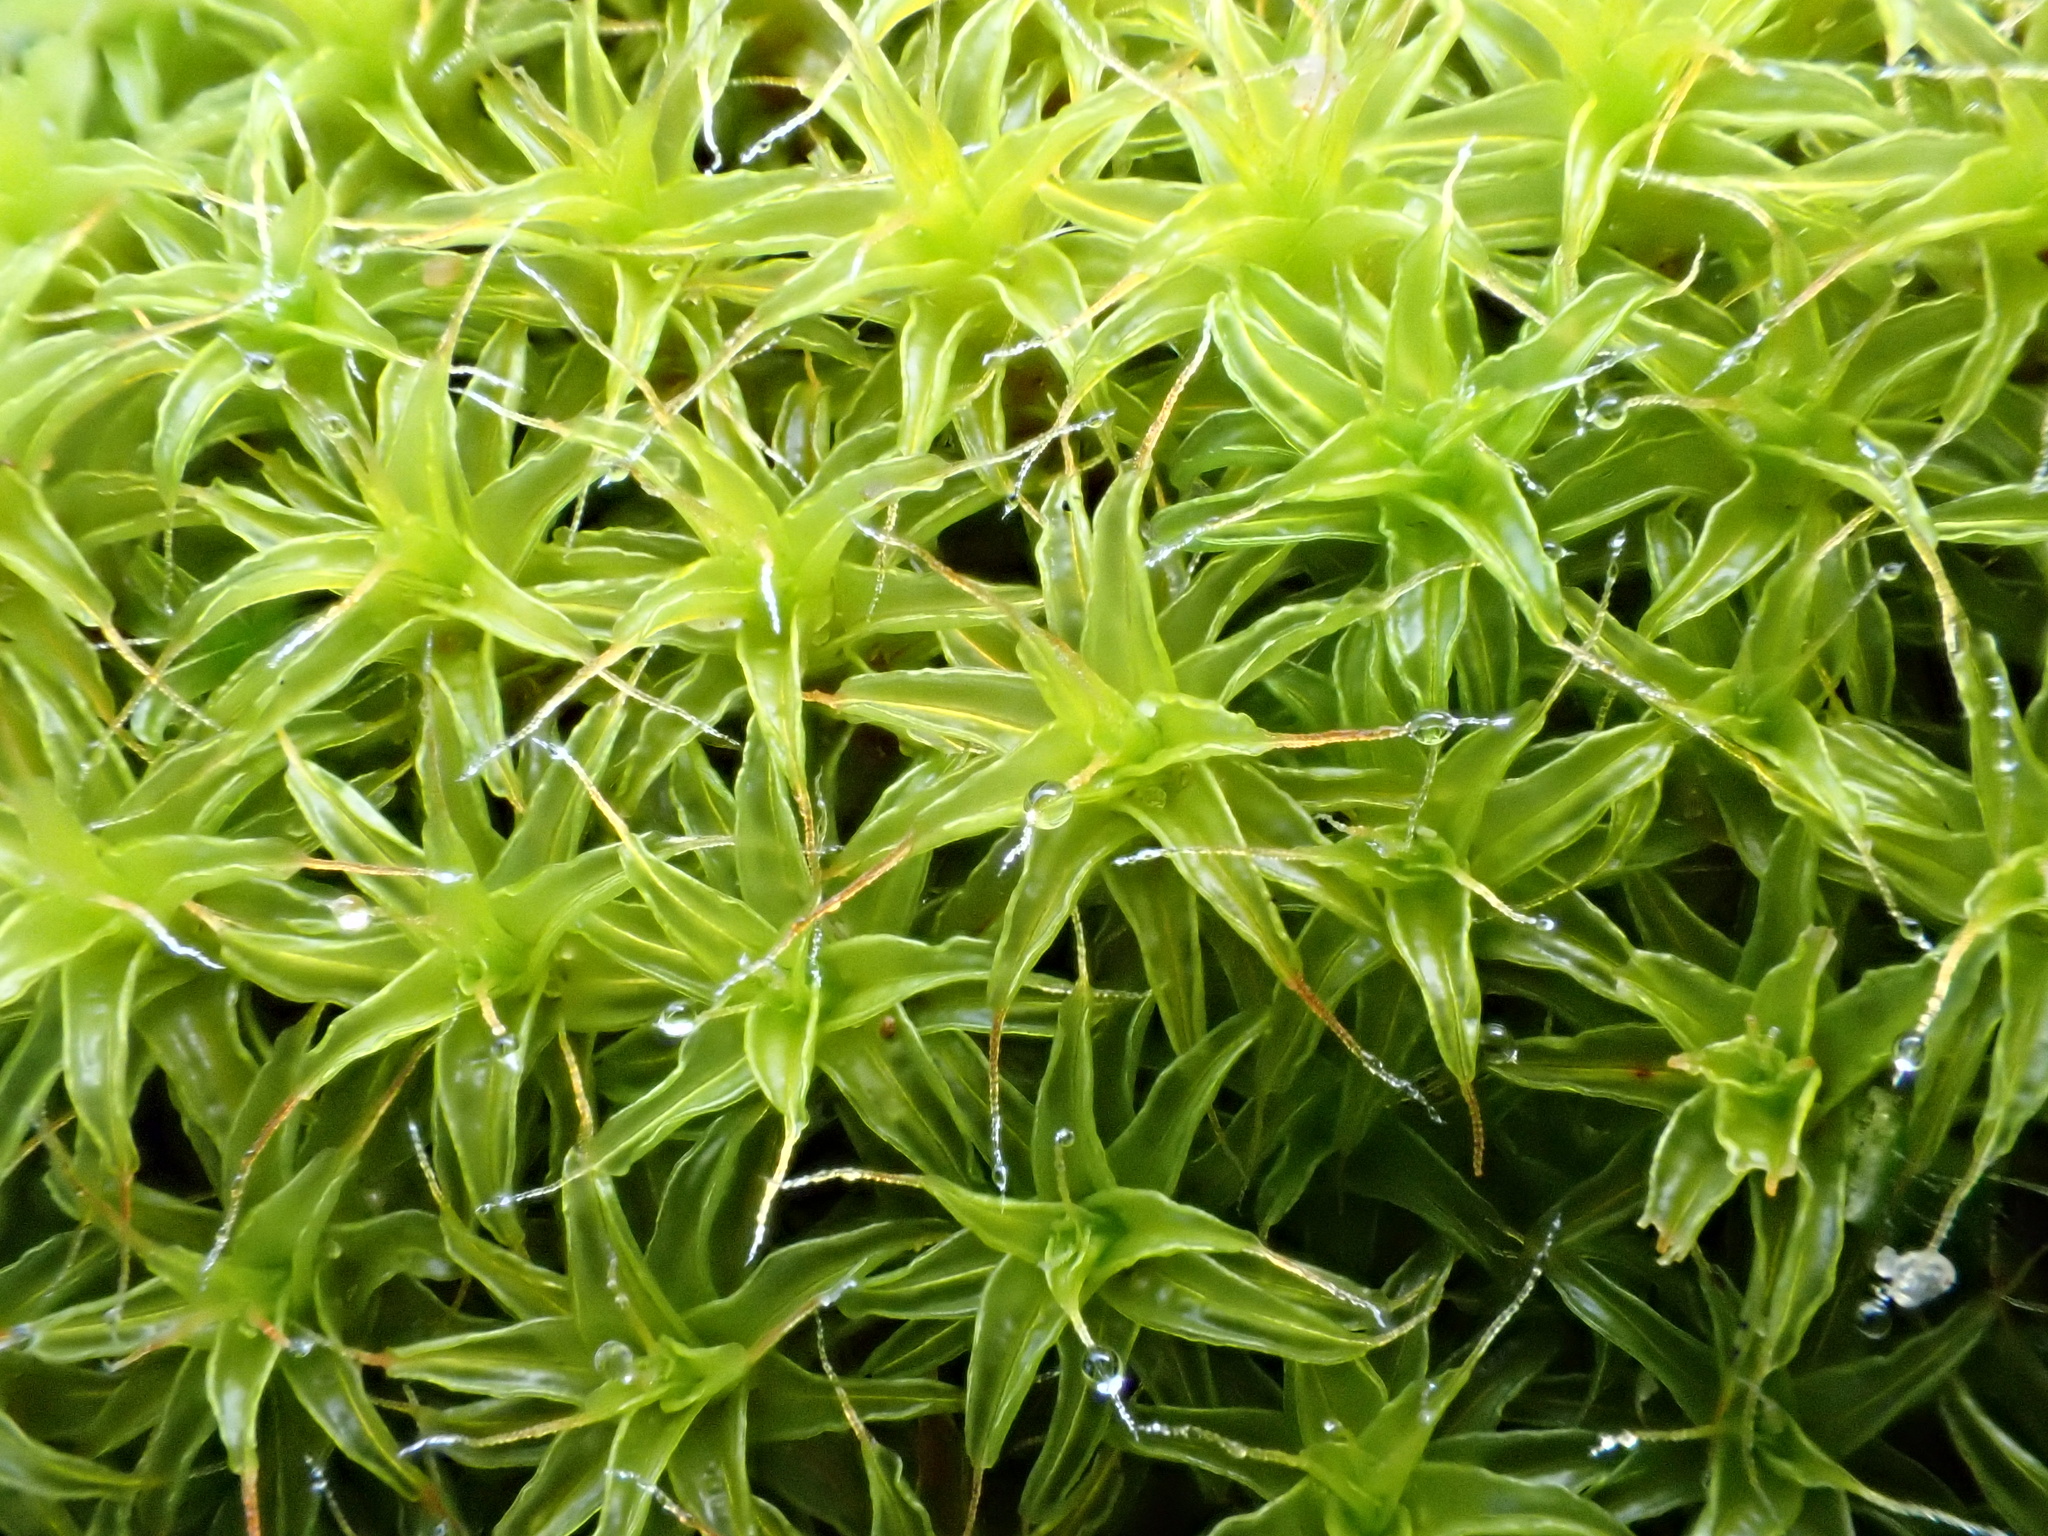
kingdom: Plantae
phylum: Bryophyta
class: Bryopsida
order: Pottiales
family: Pottiaceae
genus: Syntrichia
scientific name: Syntrichia ruralis
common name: Sidewalk screw moss
